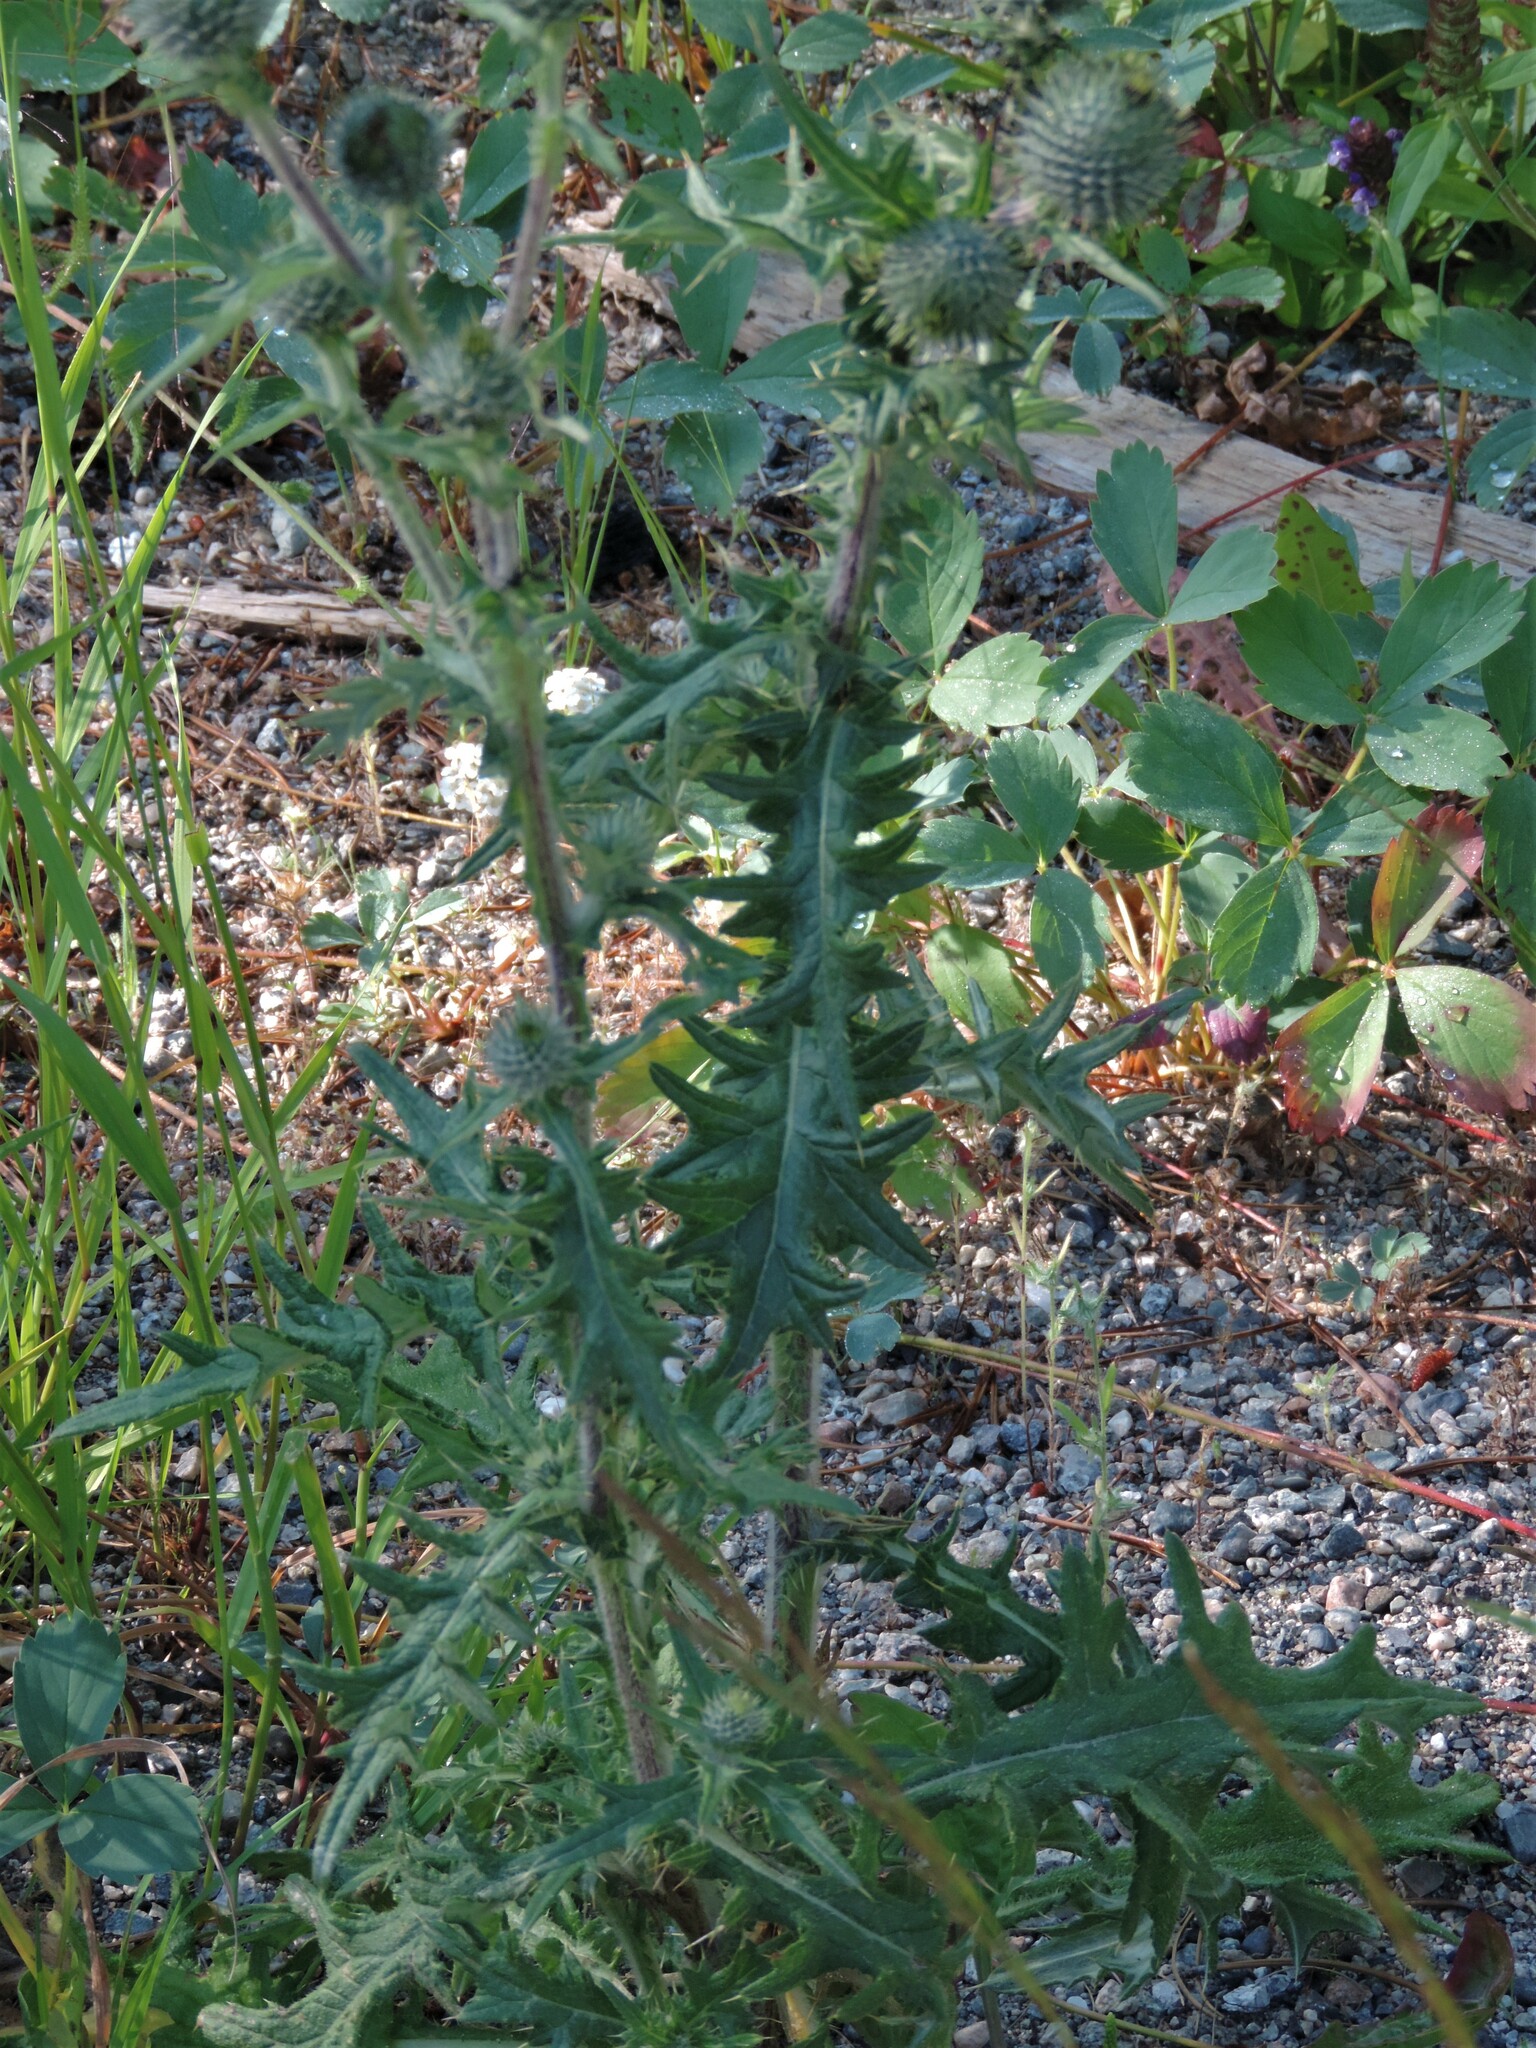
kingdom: Plantae
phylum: Tracheophyta
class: Magnoliopsida
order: Asterales
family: Asteraceae
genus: Cirsium
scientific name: Cirsium vulgare
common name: Bull thistle
